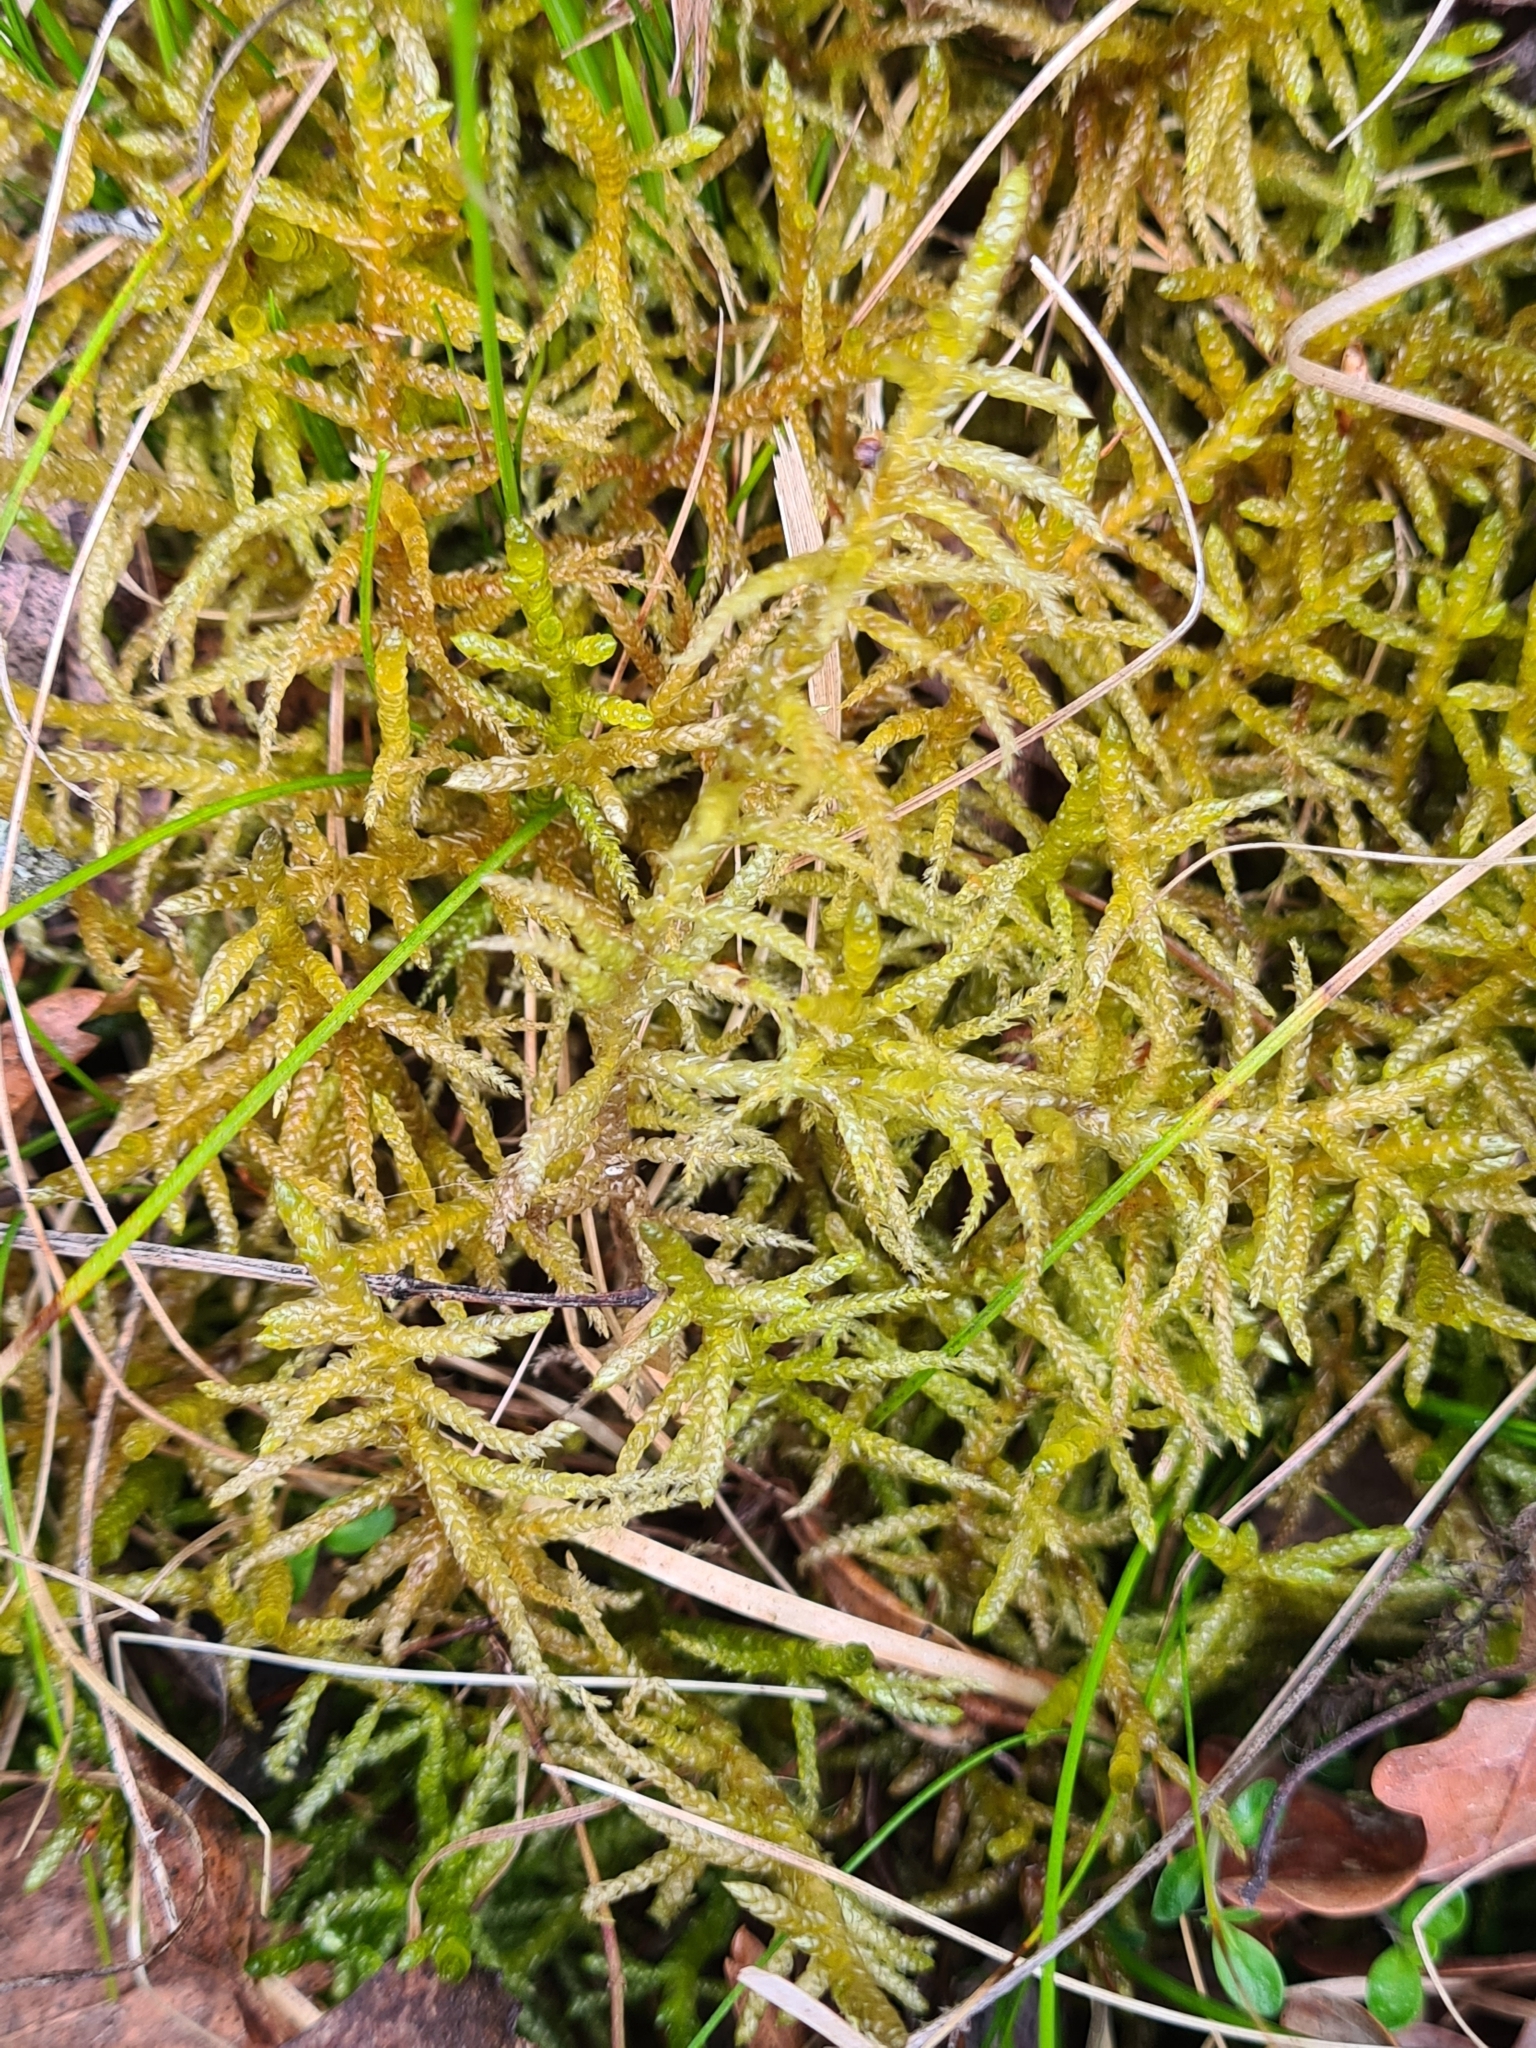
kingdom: Plantae
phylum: Bryophyta
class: Bryopsida
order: Hypnales
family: Brachytheciaceae
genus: Pseudoscleropodium
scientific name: Pseudoscleropodium purum
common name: Neat feather-moss
